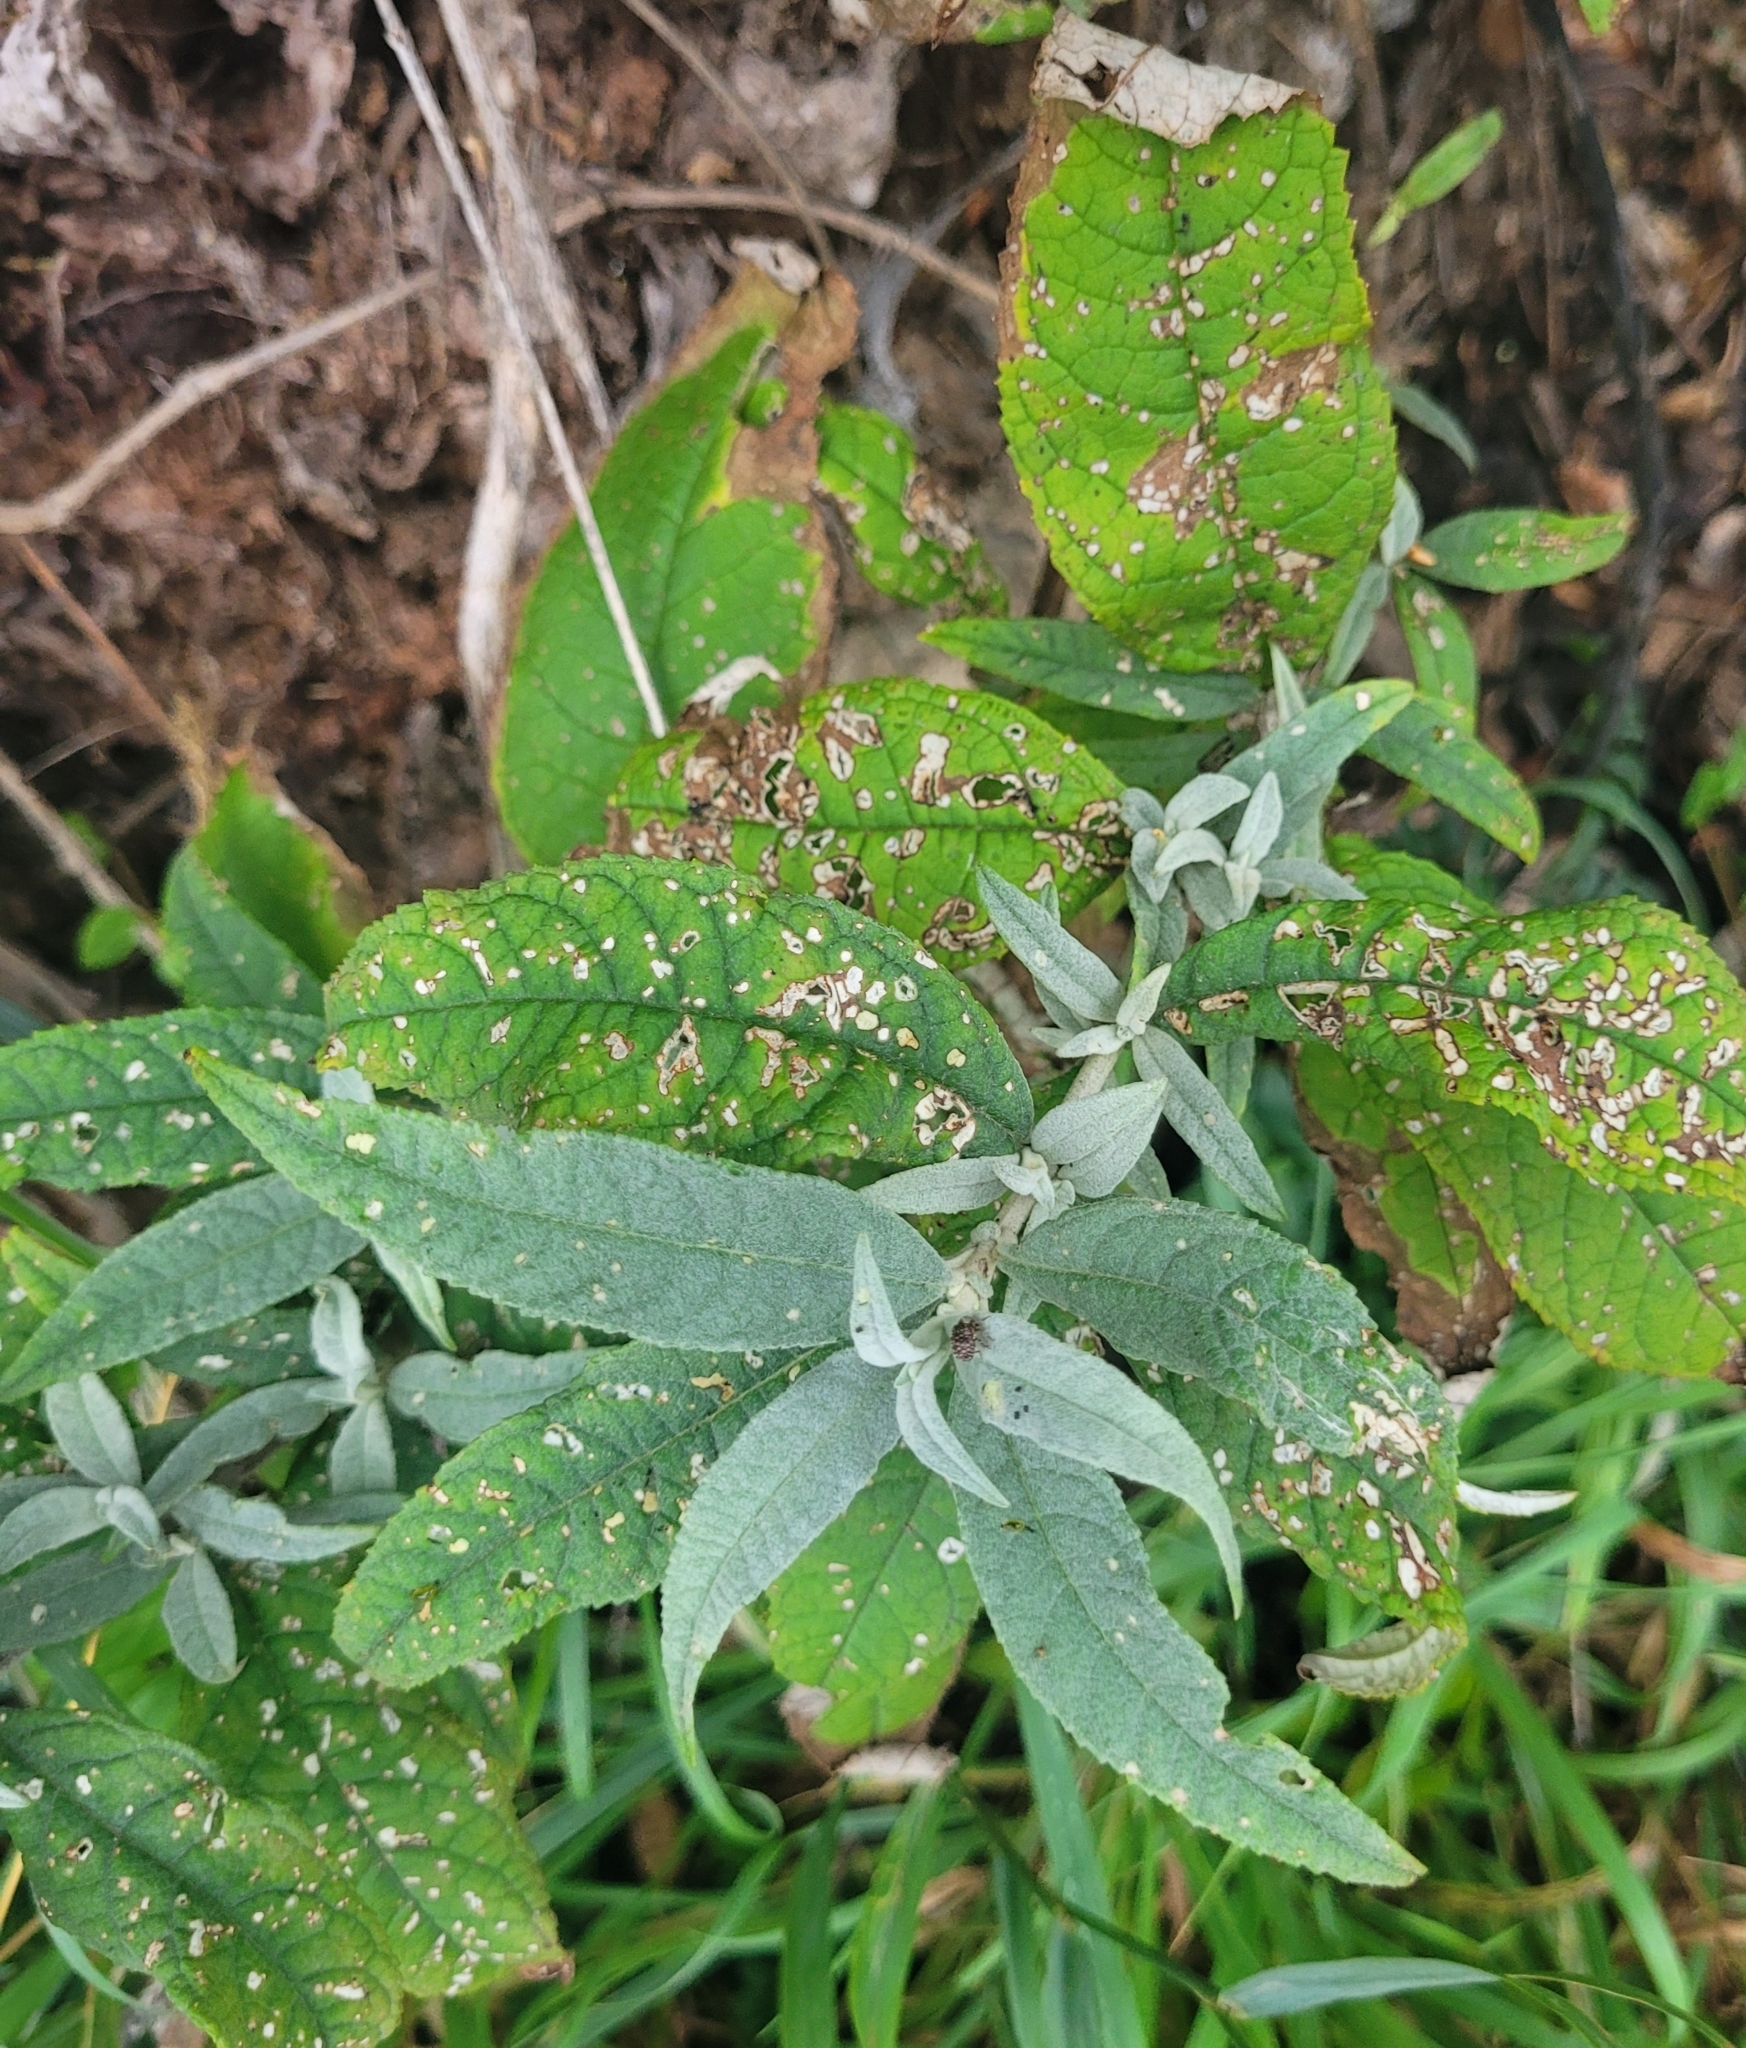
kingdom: Plantae
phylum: Tracheophyta
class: Magnoliopsida
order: Lamiales
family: Scrophulariaceae
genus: Buddleja
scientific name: Buddleja davidii
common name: Butterfly-bush
